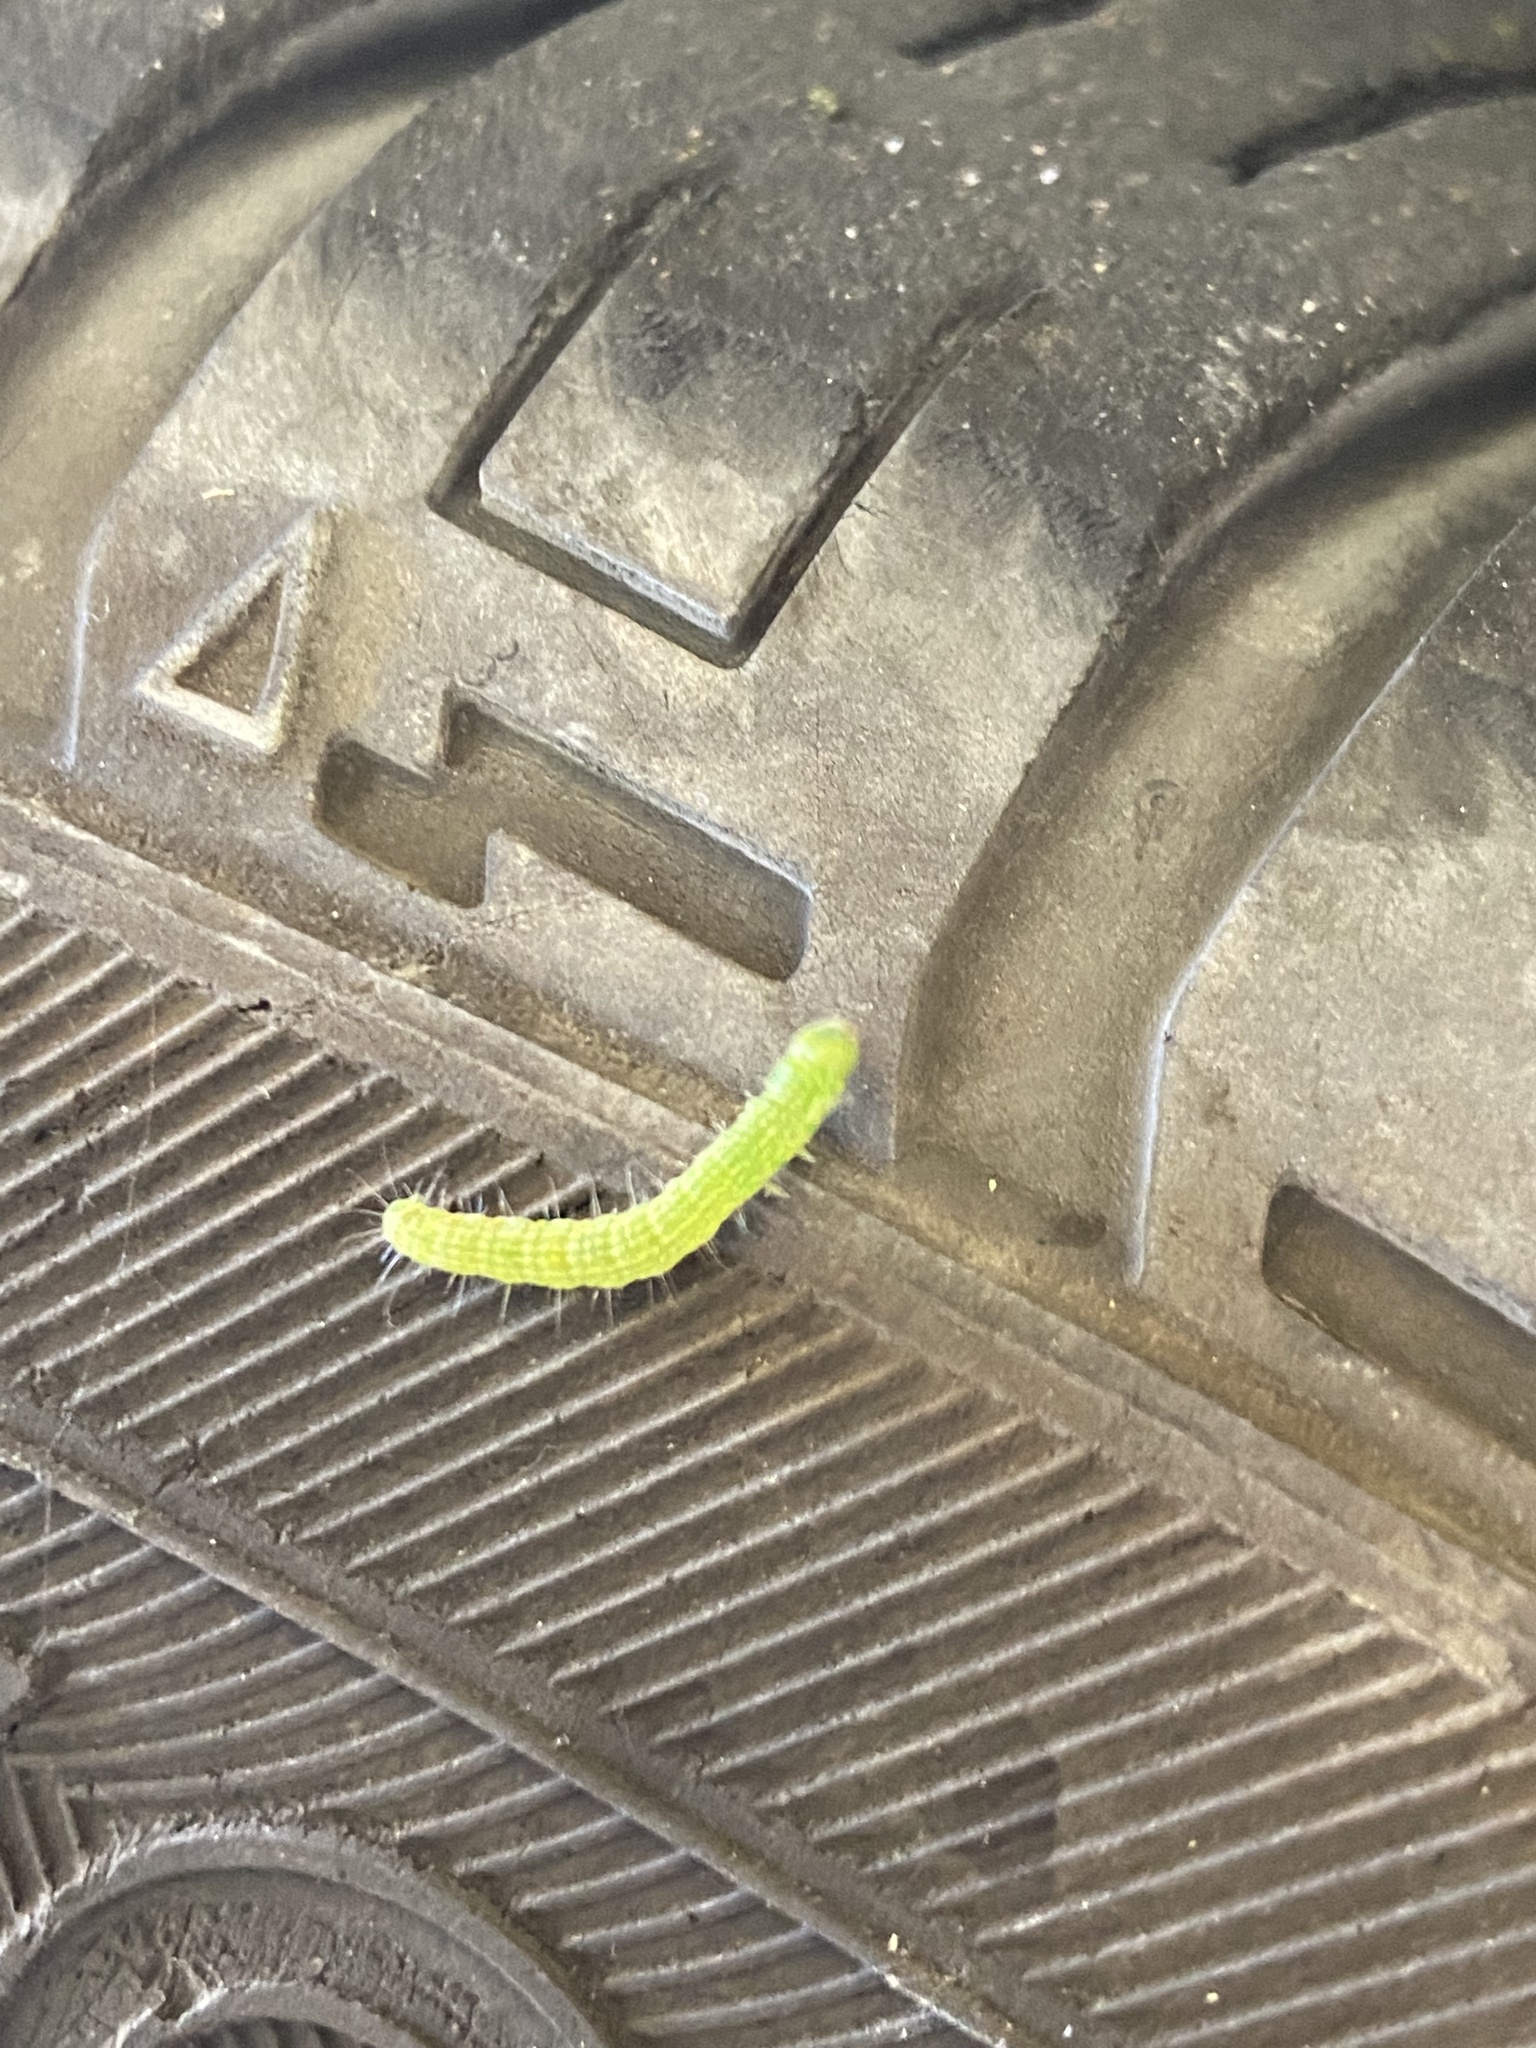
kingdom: Animalia
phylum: Arthropoda
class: Insecta
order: Lepidoptera
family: Pyralidae
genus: Sciota
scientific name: Sciota
